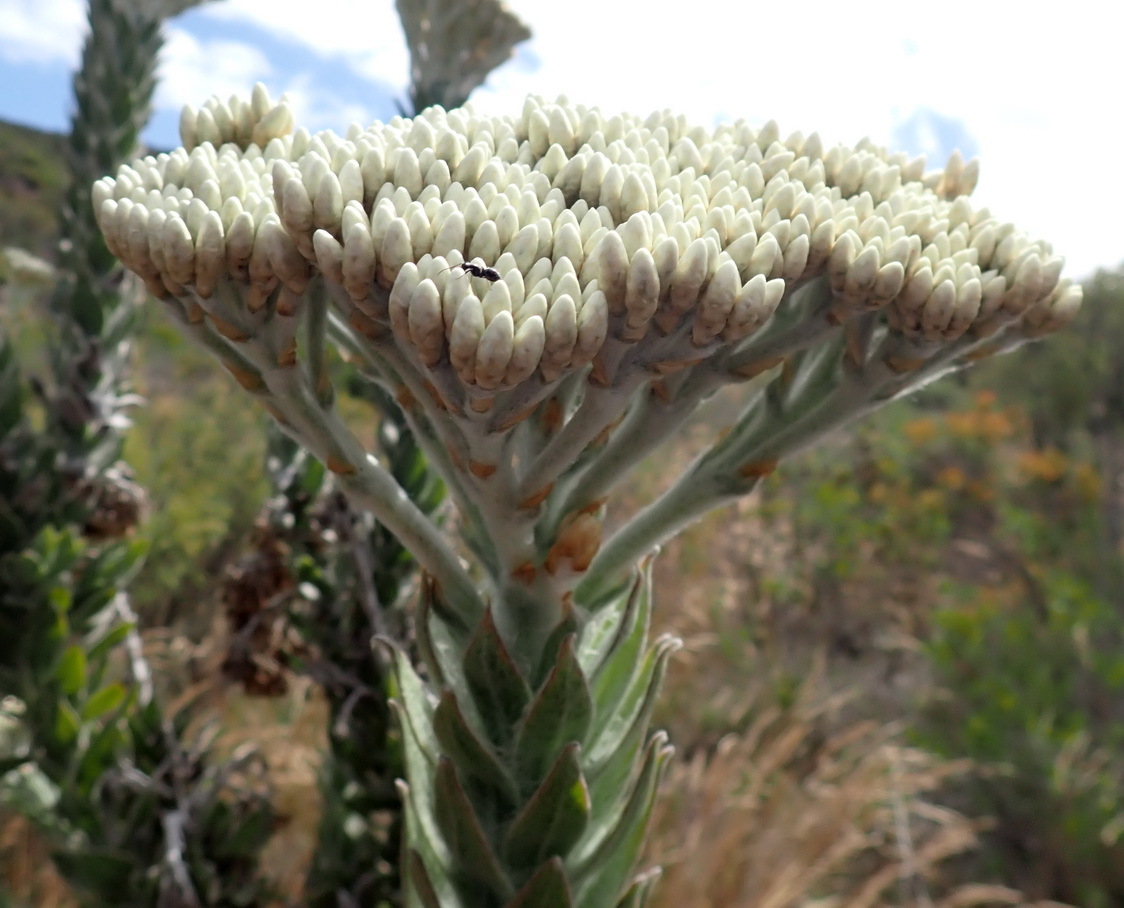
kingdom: Plantae
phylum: Tracheophyta
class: Magnoliopsida
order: Asterales
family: Asteraceae
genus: Syncarpha
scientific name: Syncarpha milleflora
